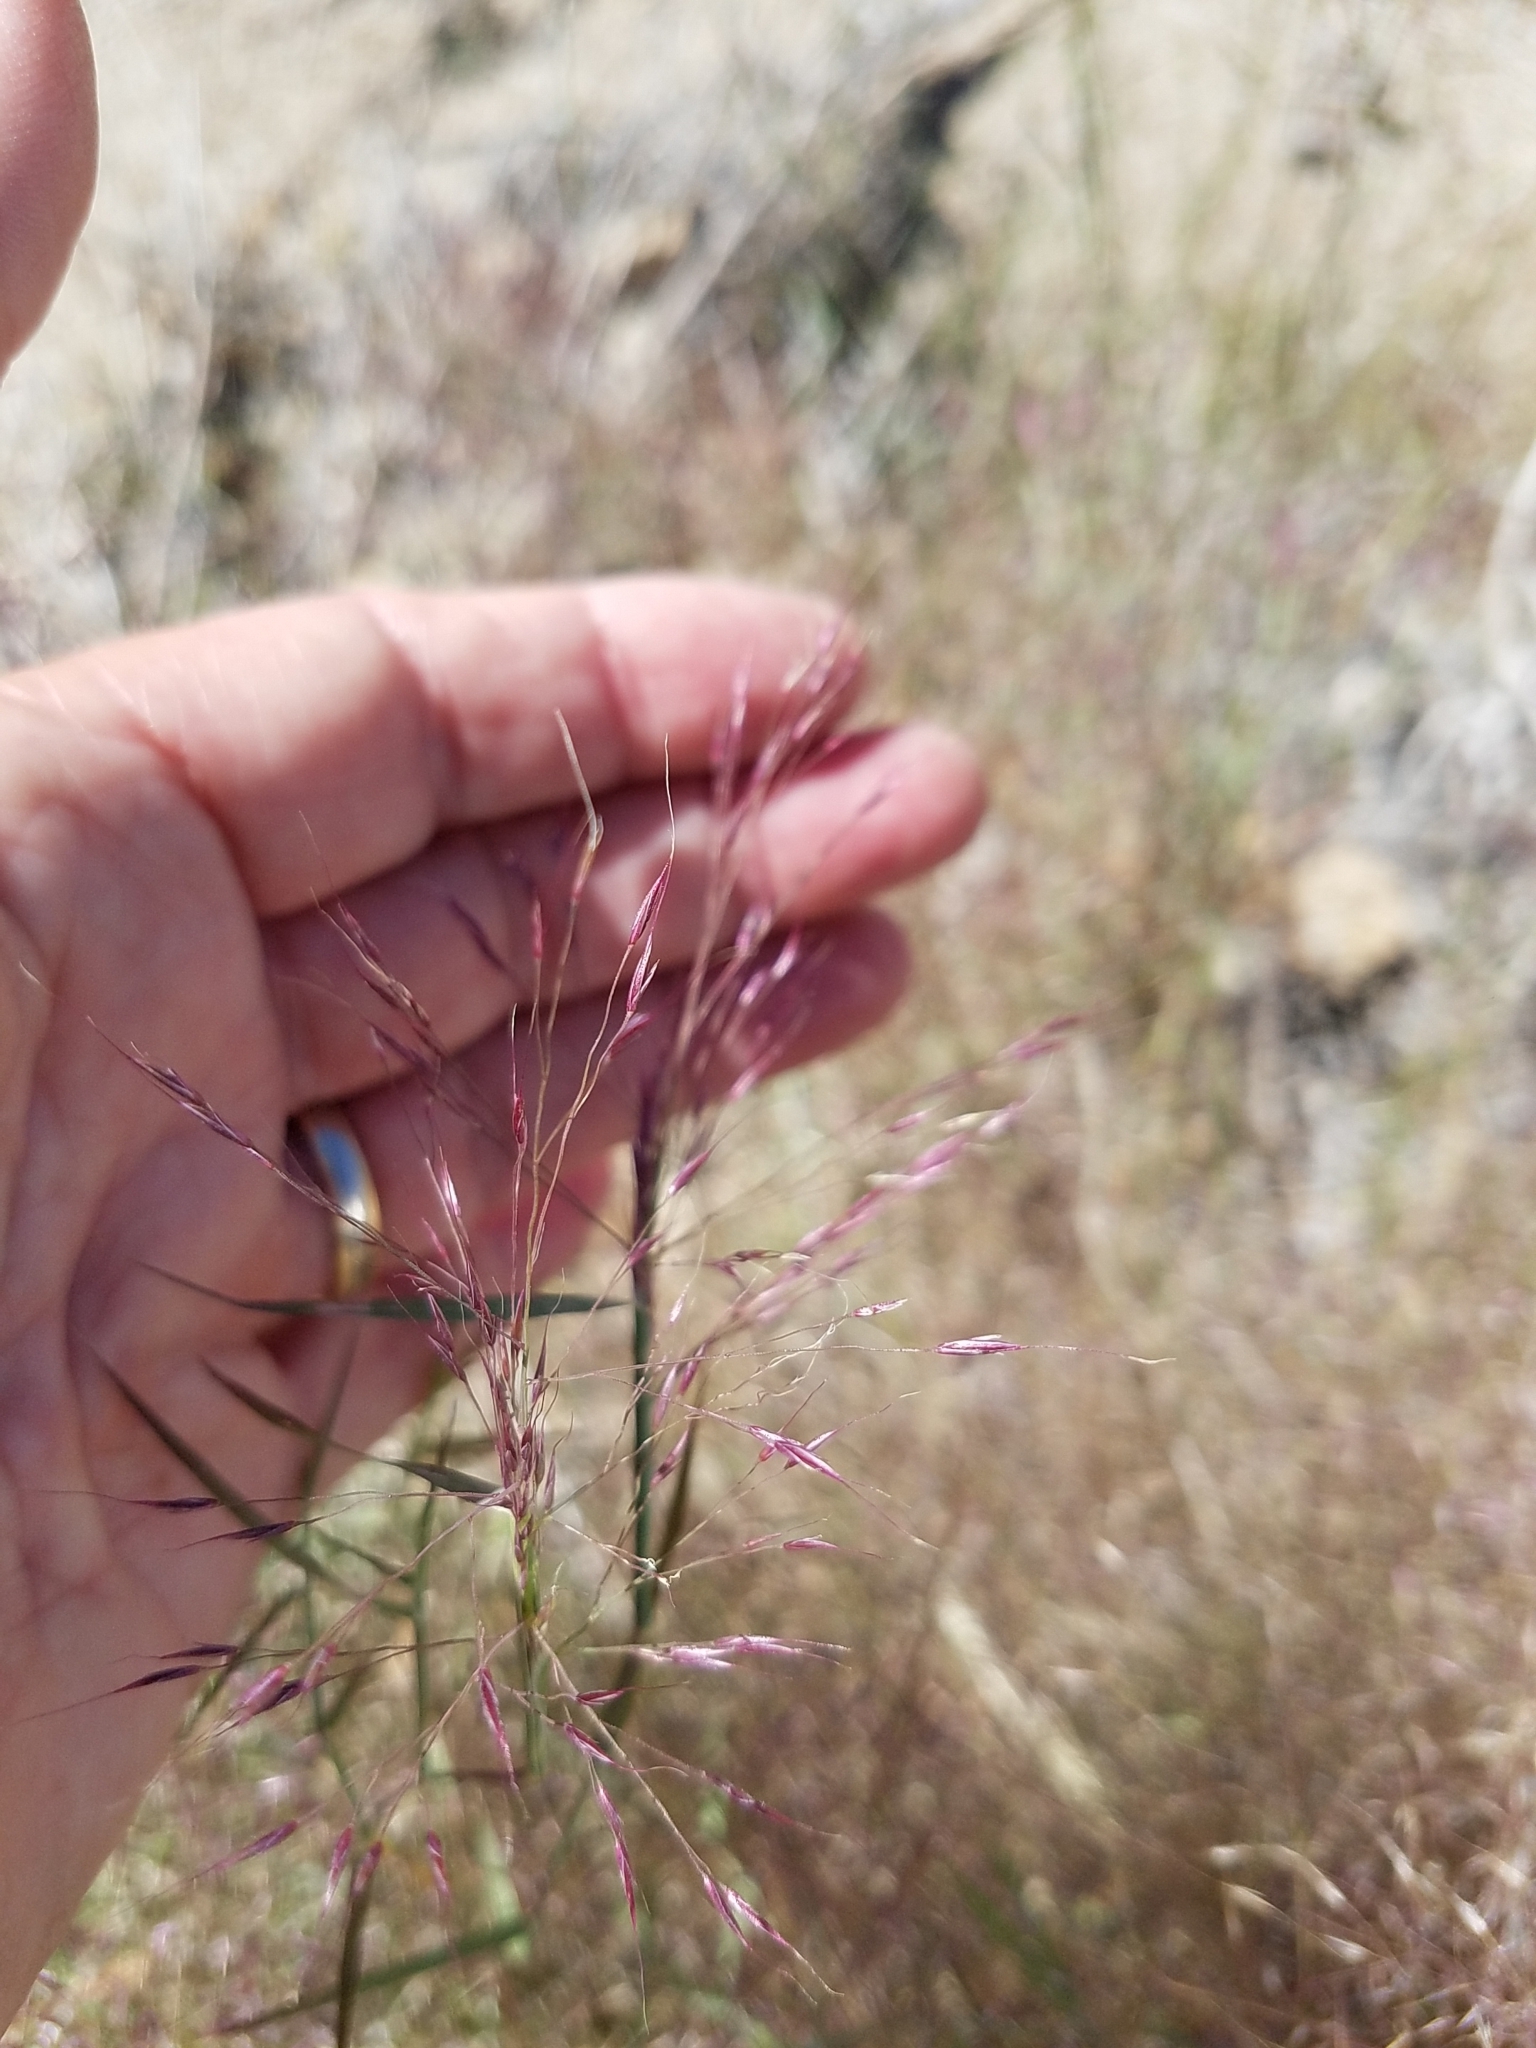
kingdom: Plantae
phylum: Tracheophyta
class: Liliopsida
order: Poales
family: Poaceae
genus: Muhlenbergia
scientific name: Muhlenbergia porteri
